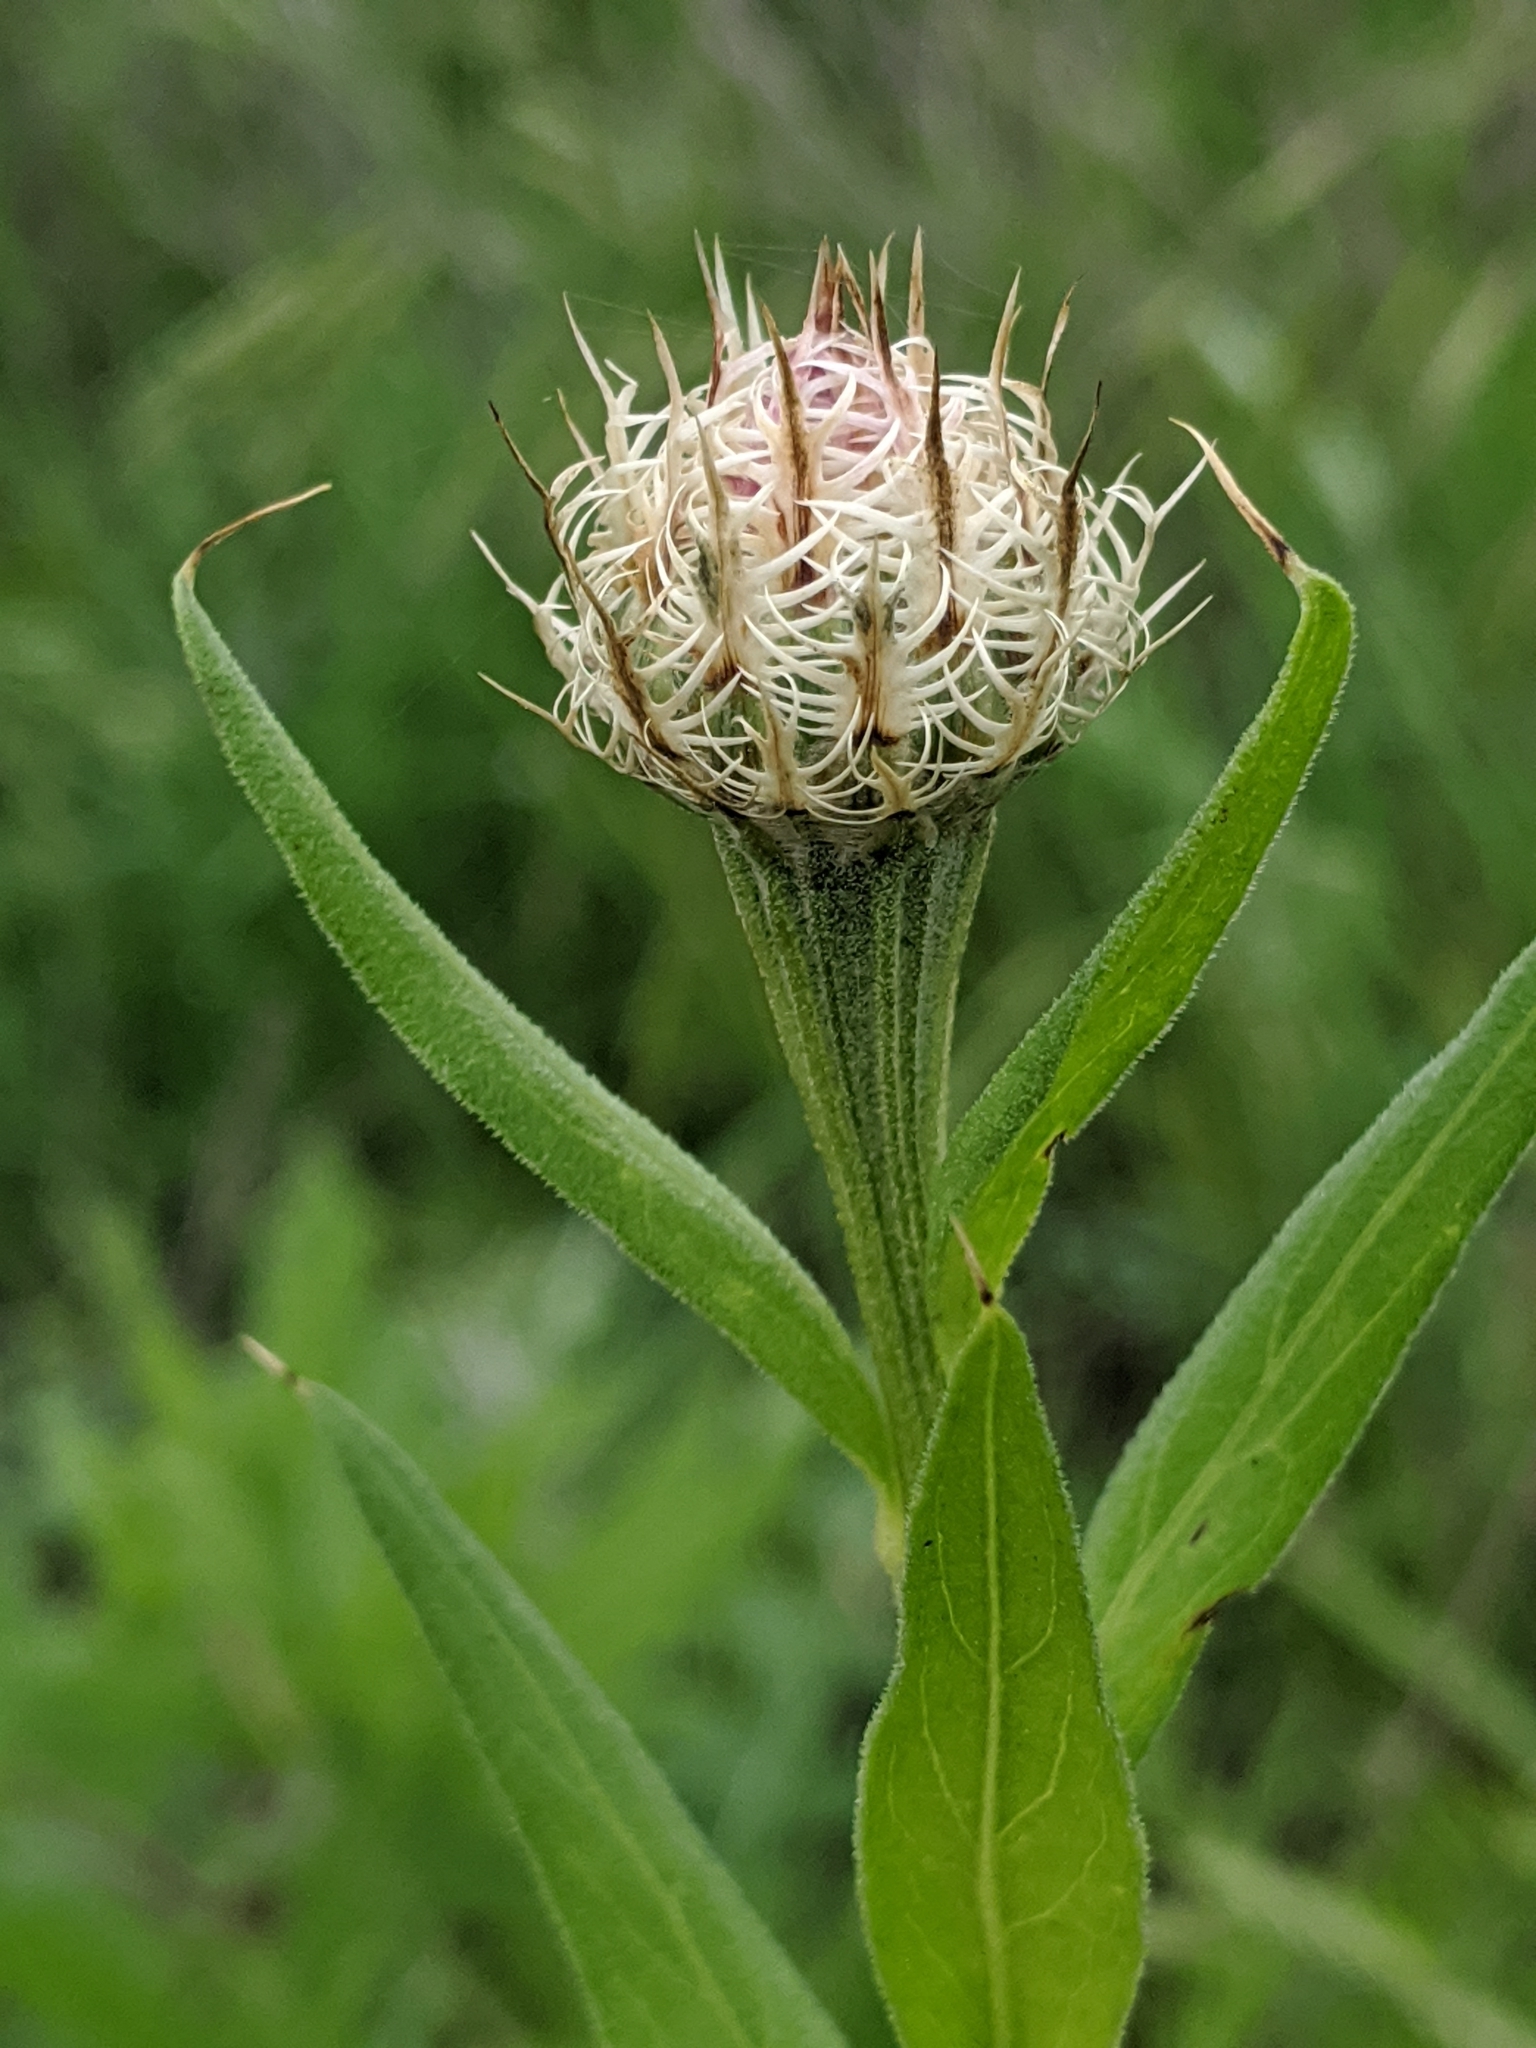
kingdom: Plantae
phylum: Tracheophyta
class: Magnoliopsida
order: Asterales
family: Asteraceae
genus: Plectocephalus
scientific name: Plectocephalus americanus
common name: American basket-flower
